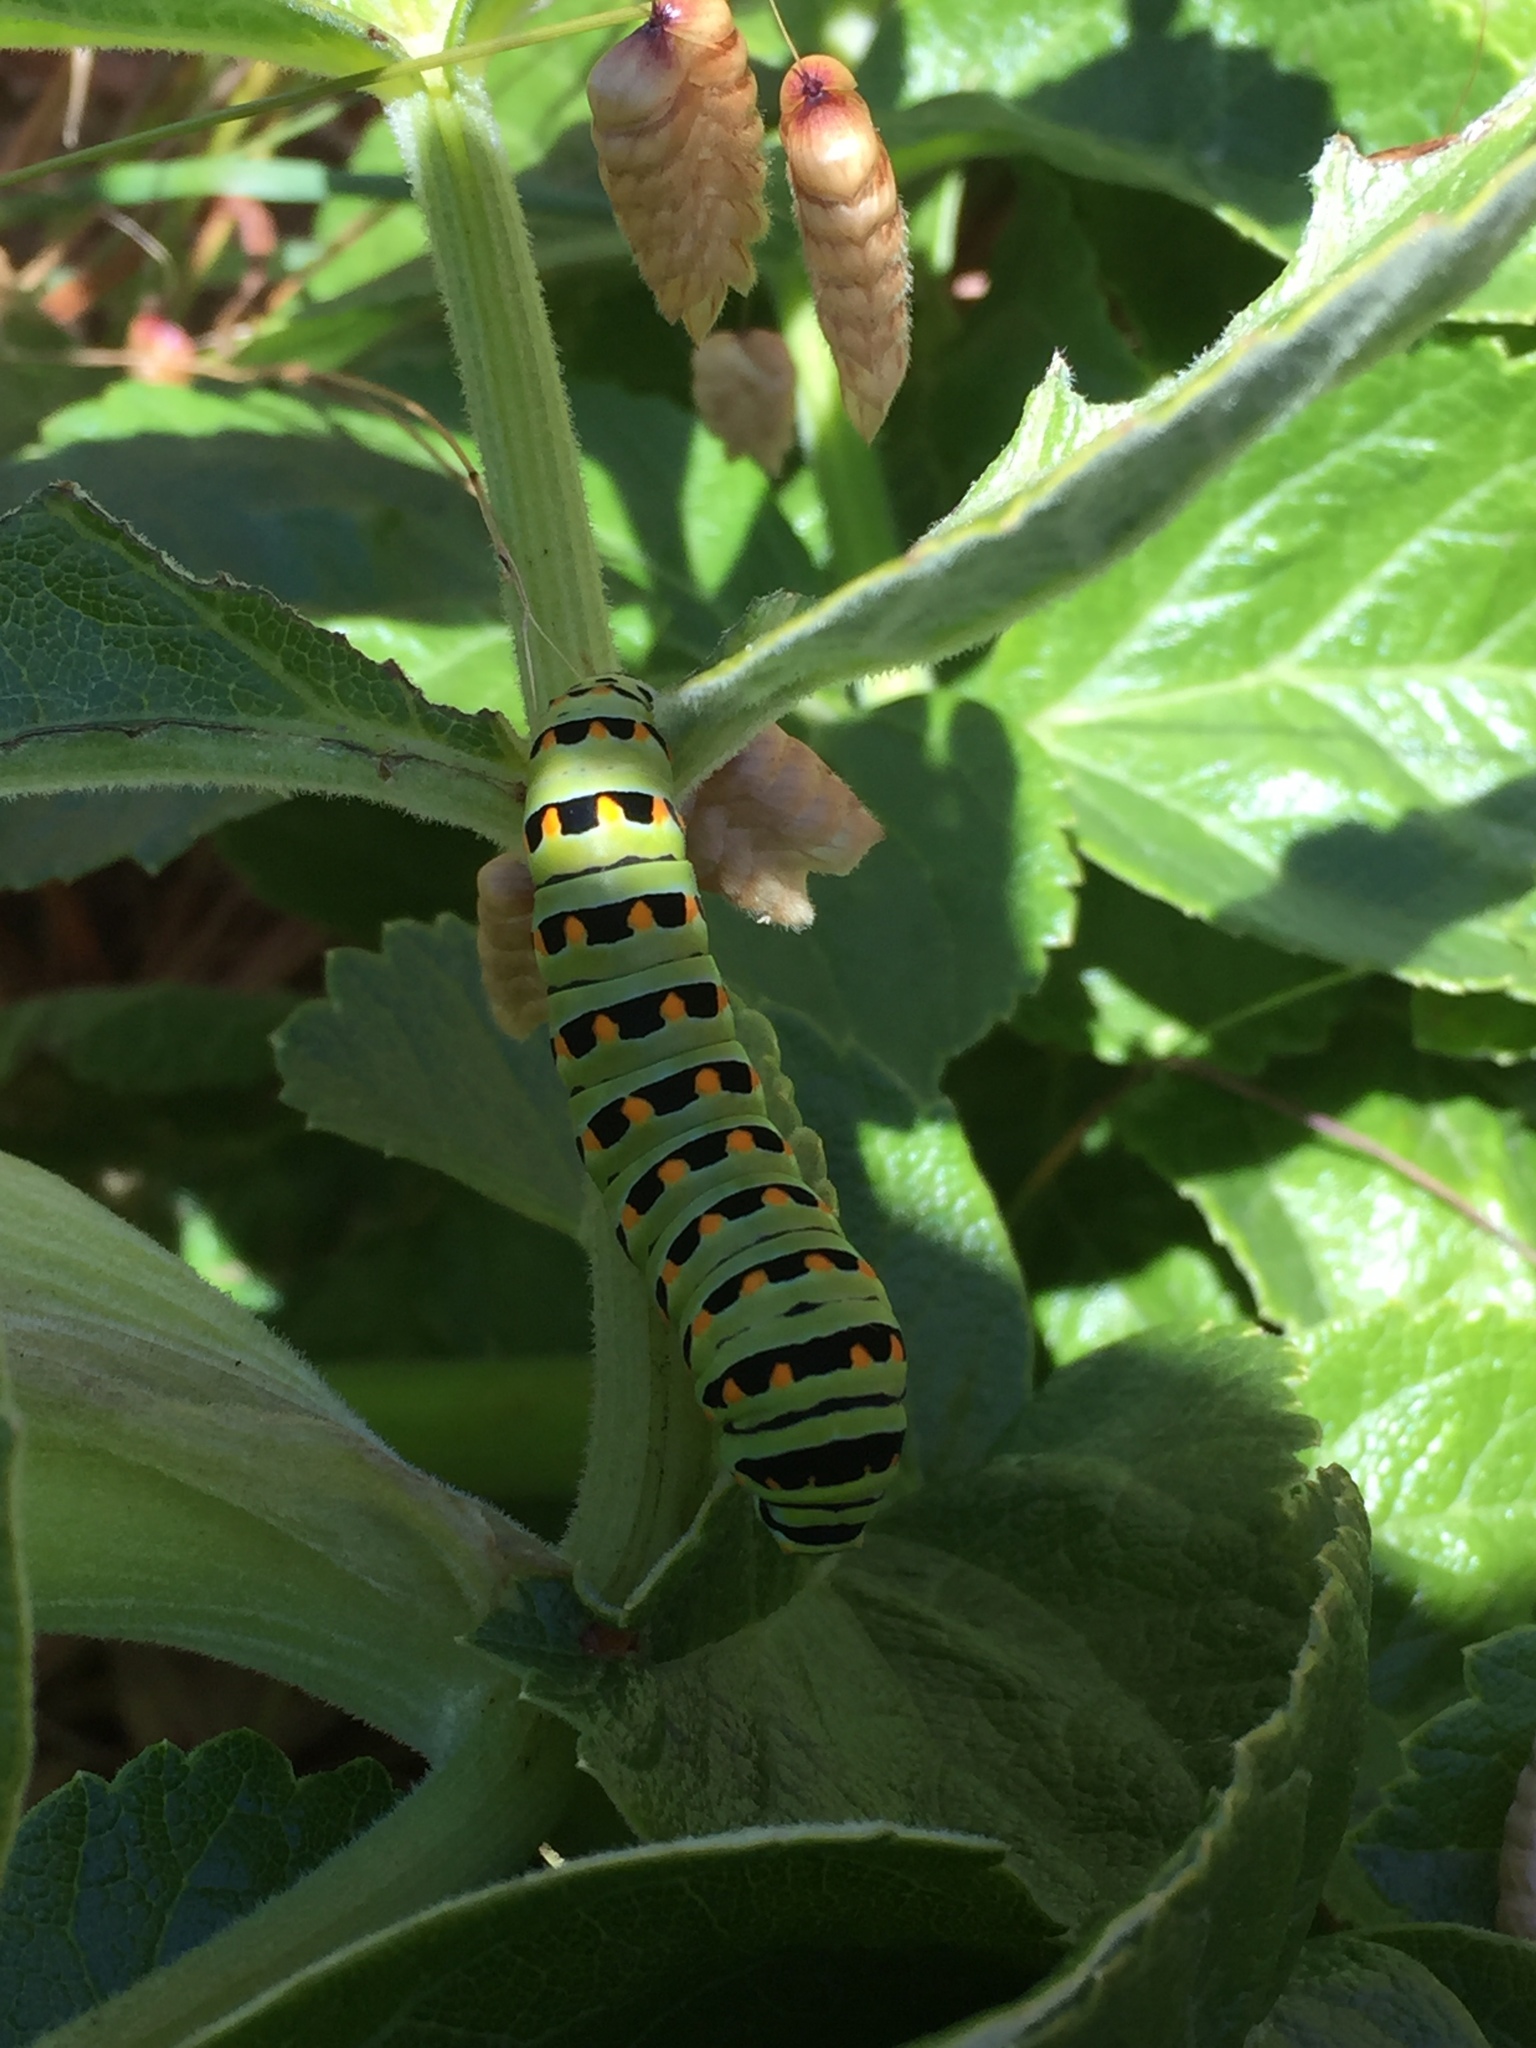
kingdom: Animalia
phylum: Arthropoda
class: Insecta
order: Lepidoptera
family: Papilionidae
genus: Papilio
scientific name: Papilio zelicaon
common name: Anise swallowtail
